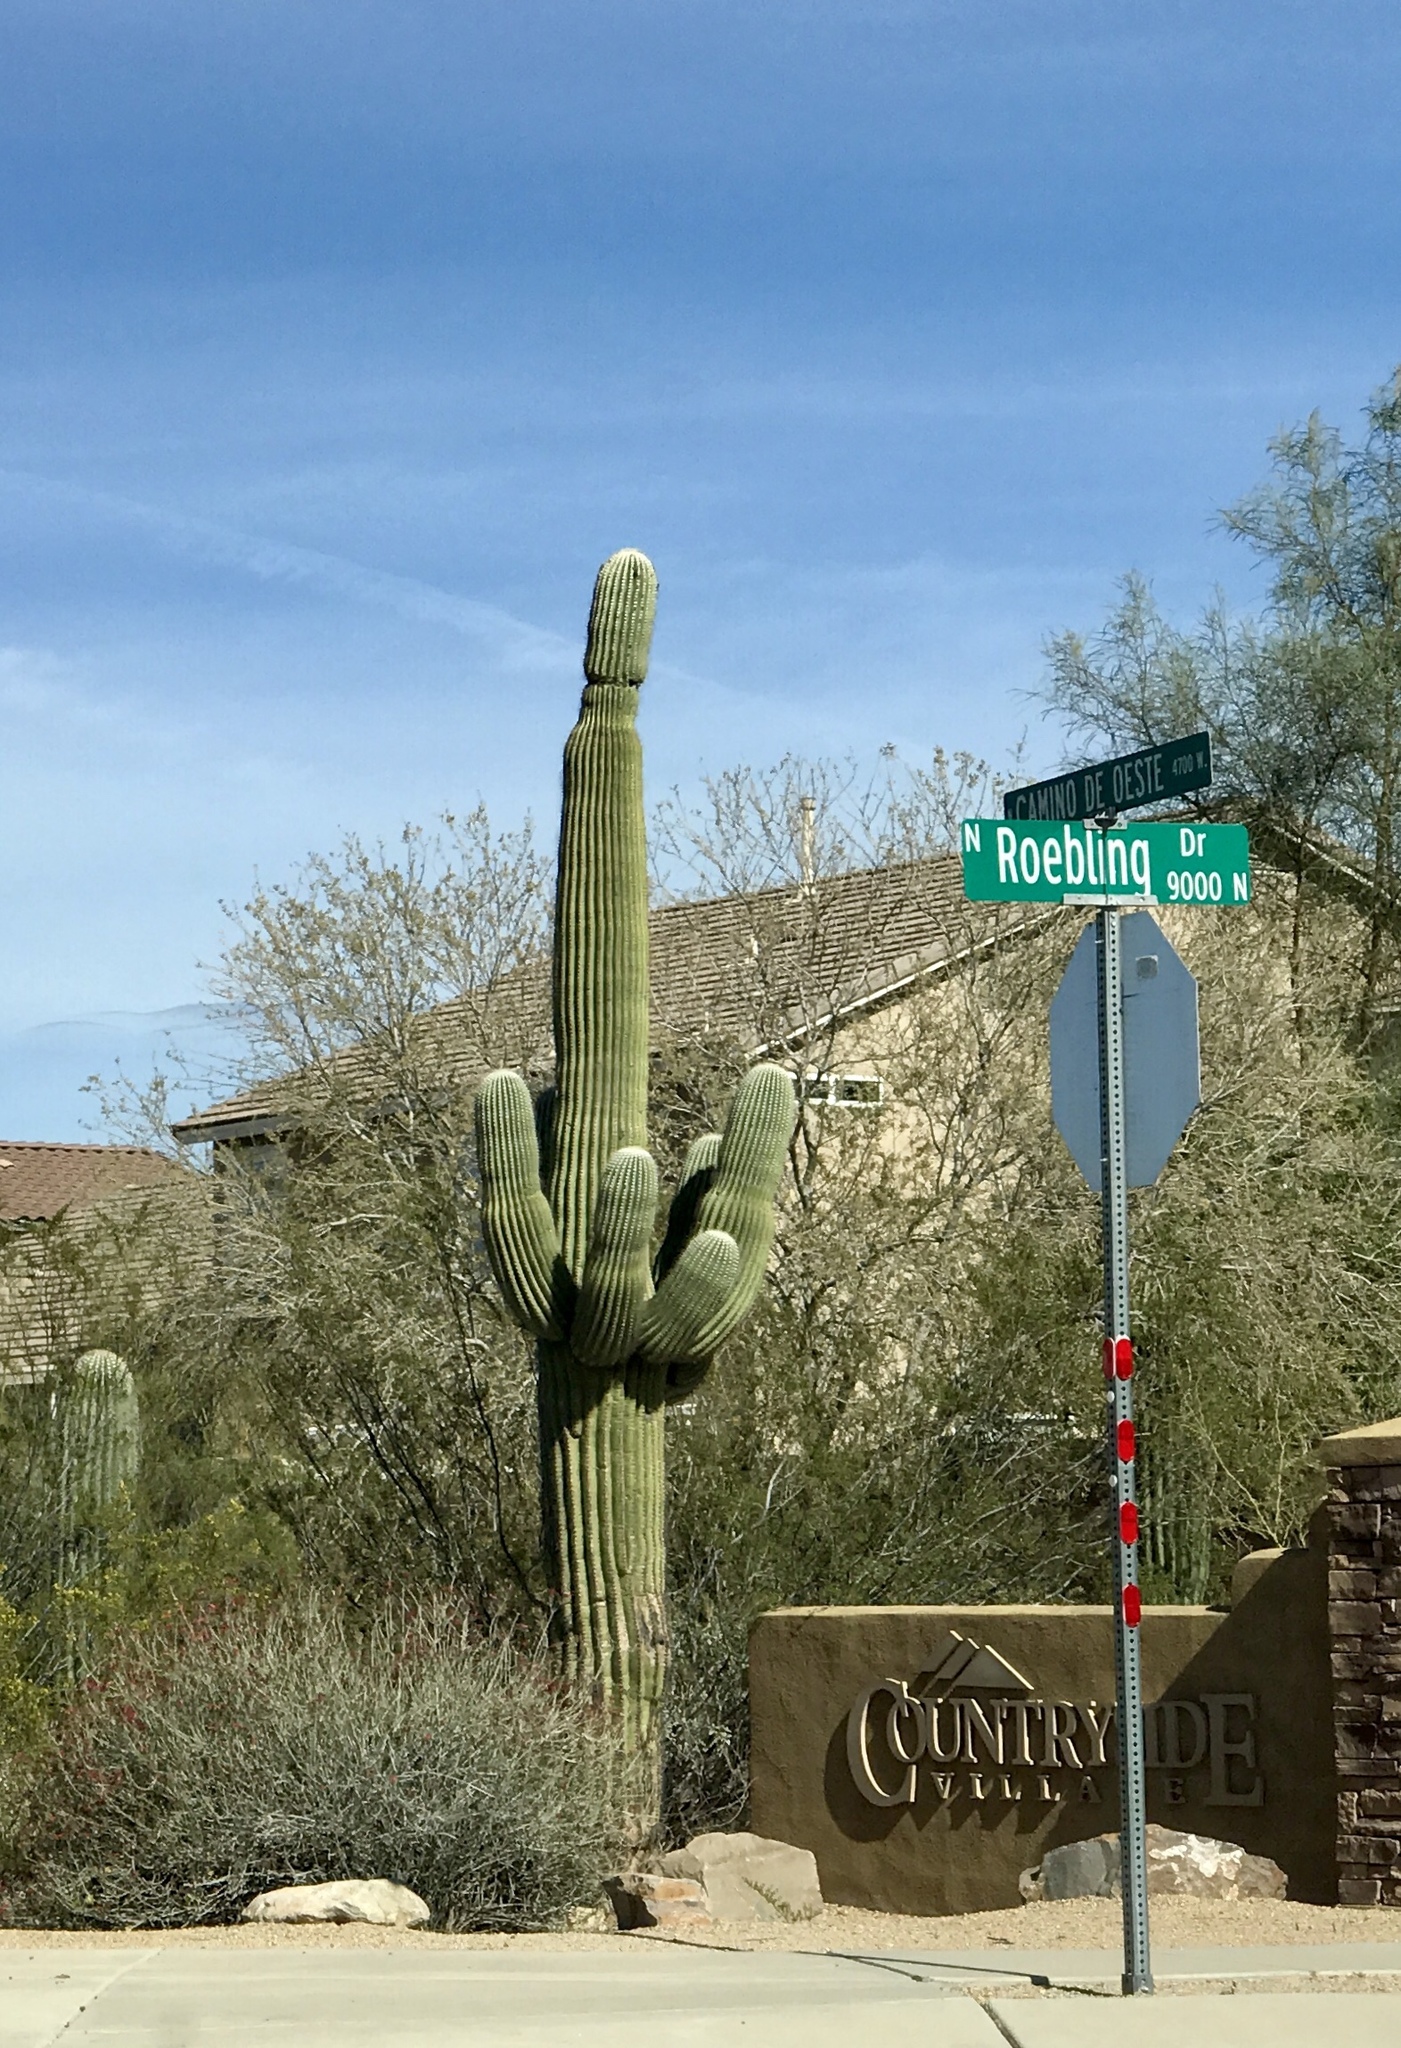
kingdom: Plantae
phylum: Tracheophyta
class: Magnoliopsida
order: Caryophyllales
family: Cactaceae
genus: Carnegiea
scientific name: Carnegiea gigantea
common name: Saguaro
